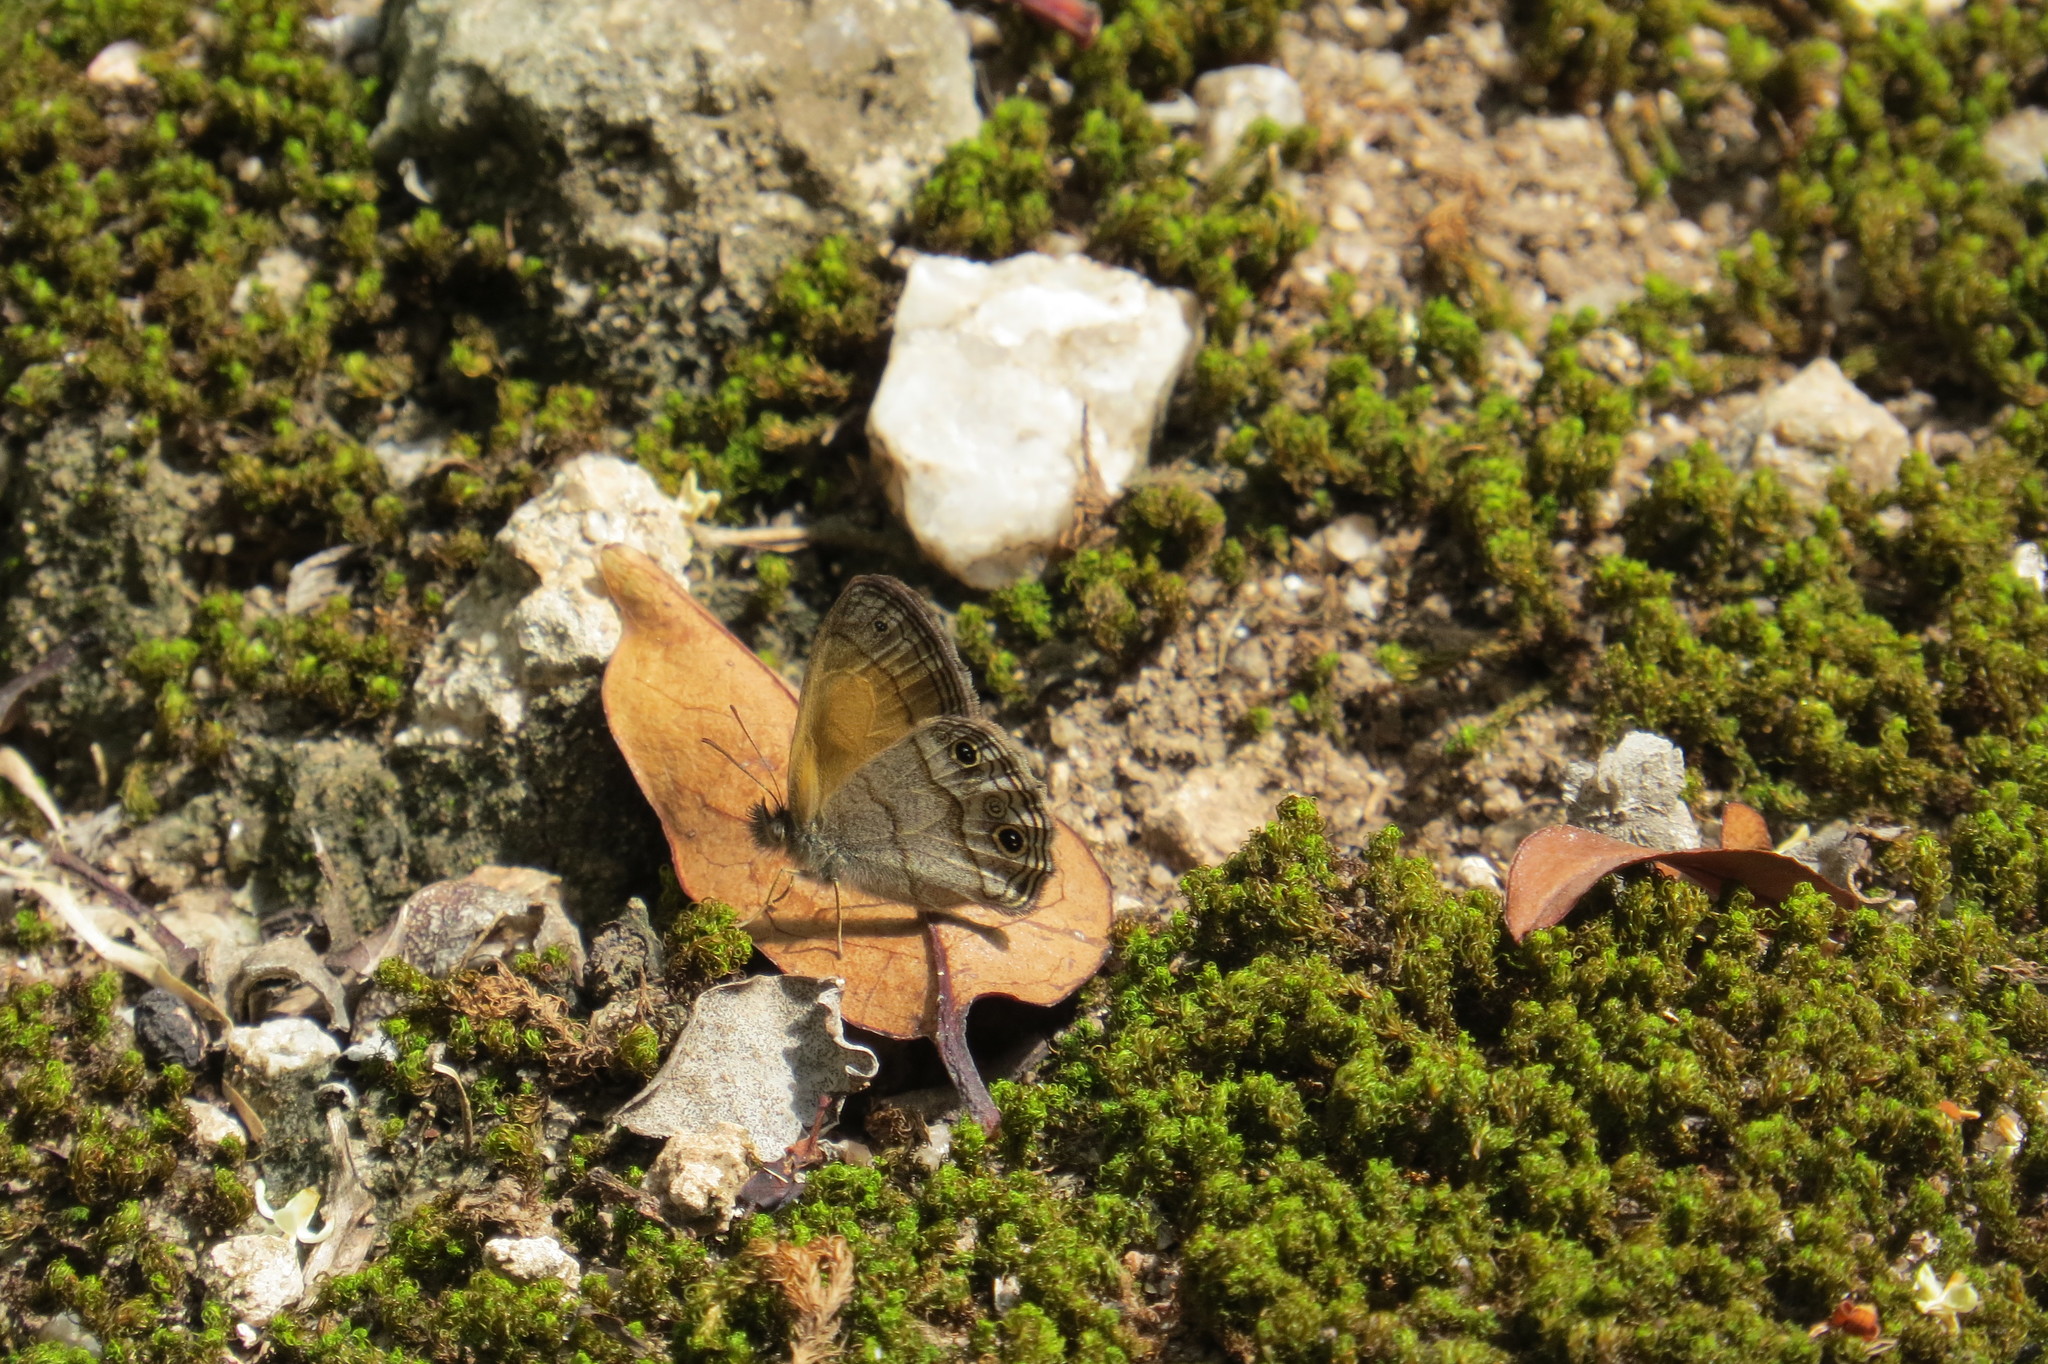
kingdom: Animalia
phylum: Arthropoda
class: Insecta
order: Lepidoptera
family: Nymphalidae
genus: Pharneuptychia
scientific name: Pharneuptychia phares
